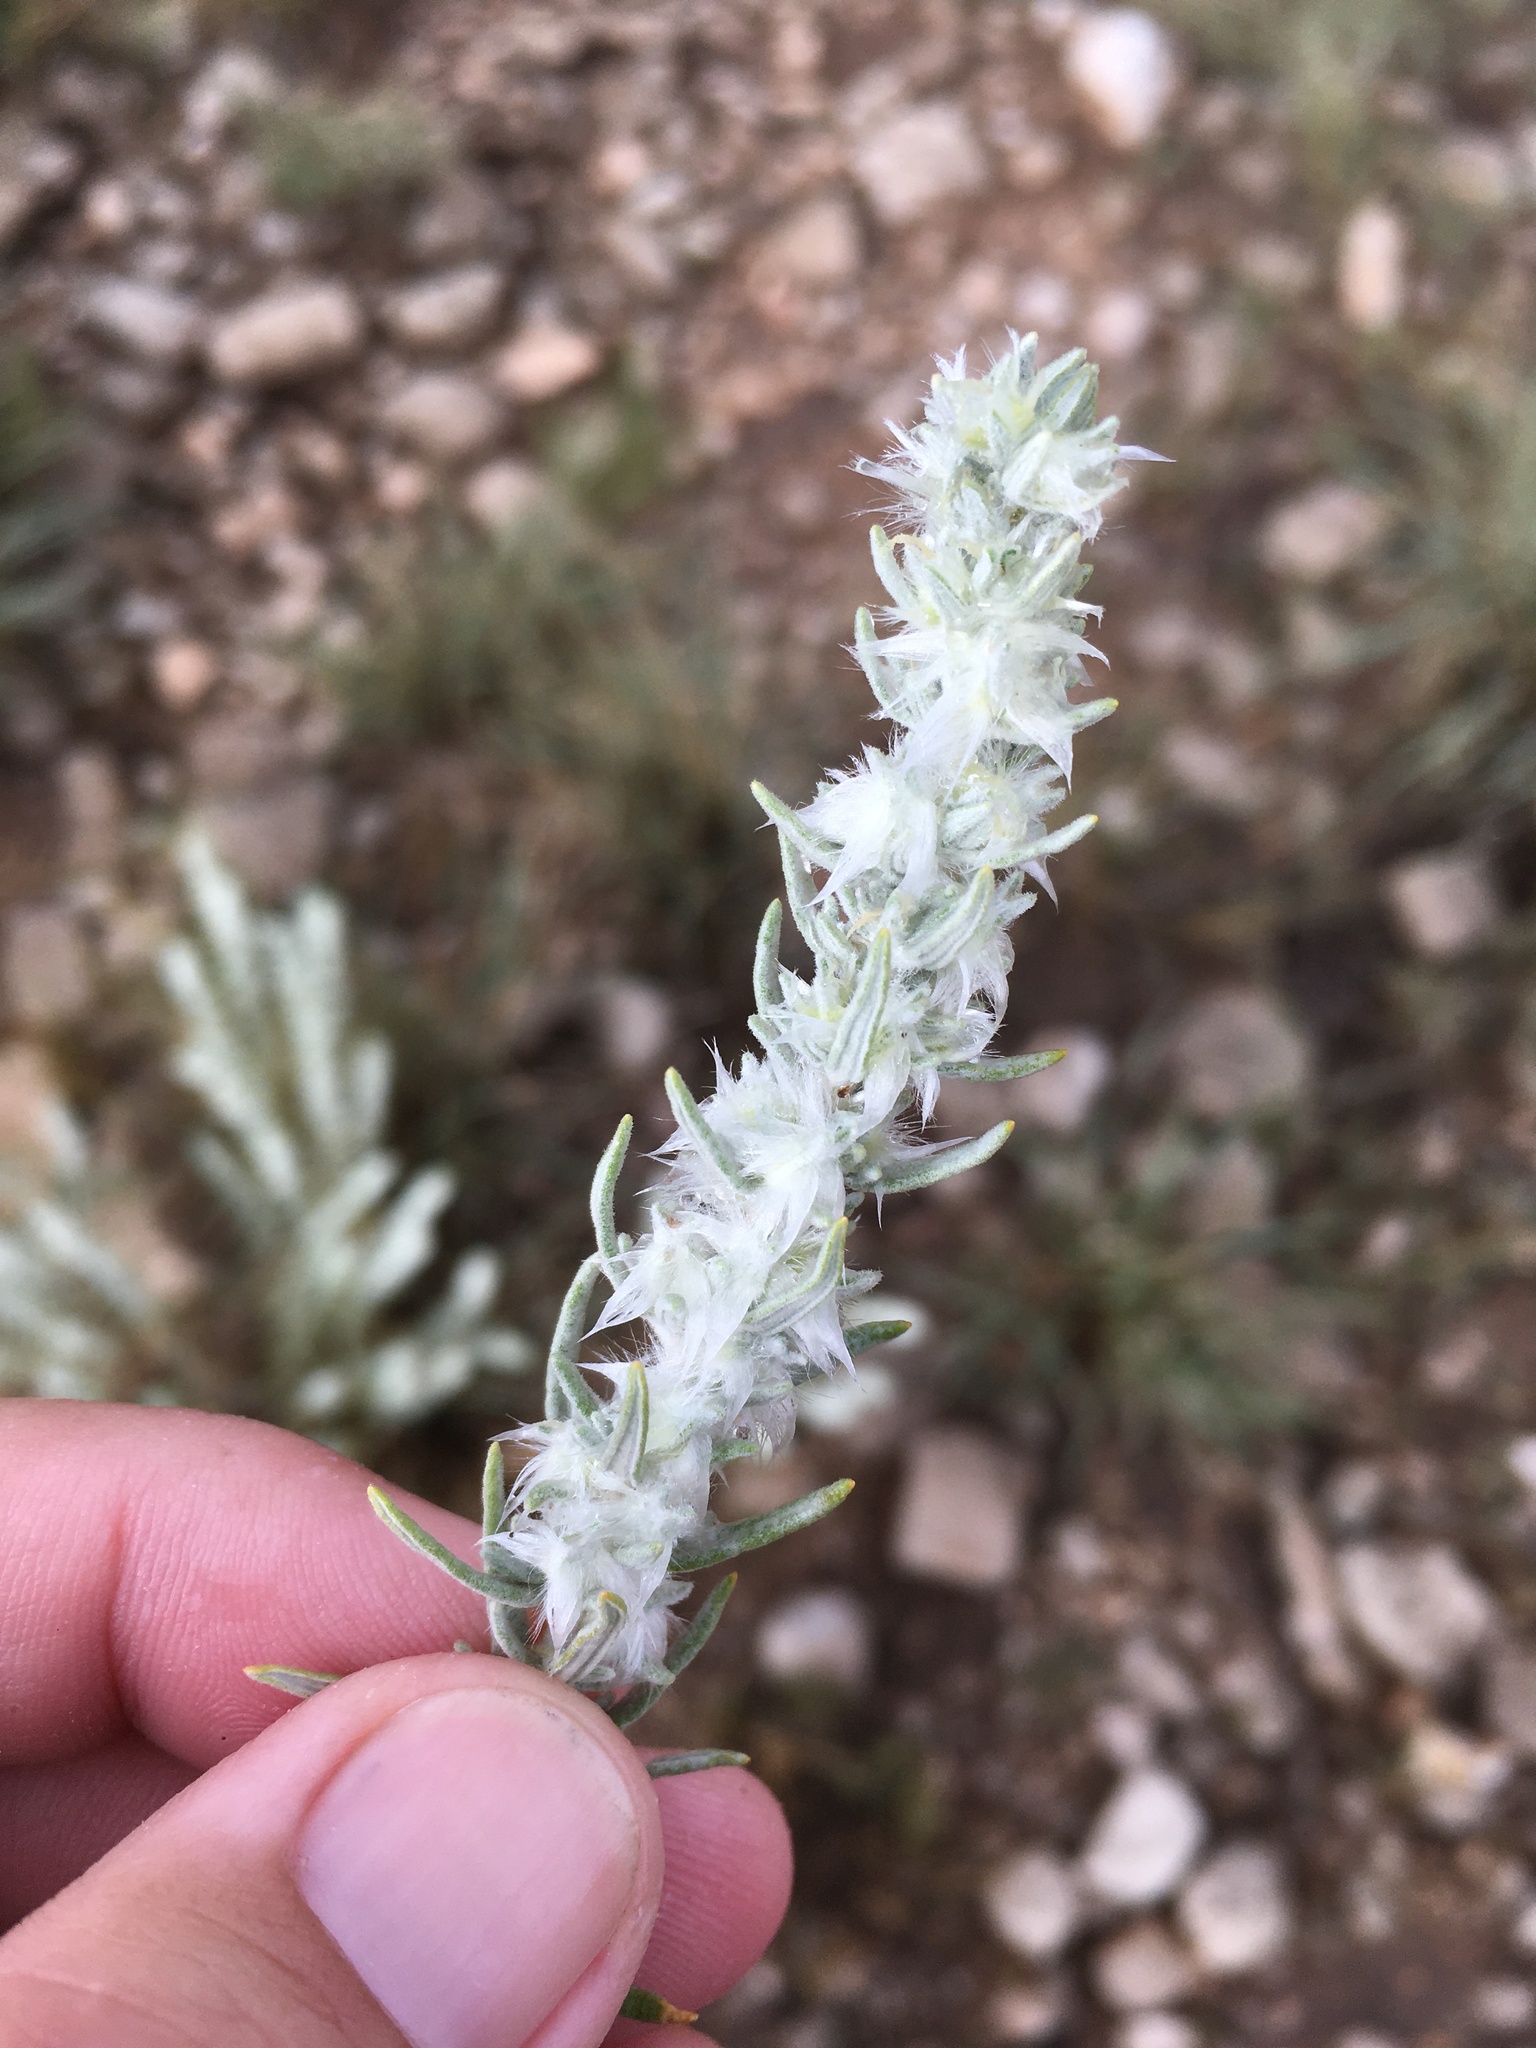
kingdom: Plantae
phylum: Tracheophyta
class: Magnoliopsida
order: Caryophyllales
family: Amaranthaceae
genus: Krascheninnikovia
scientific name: Krascheninnikovia lanata
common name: Winterfat
